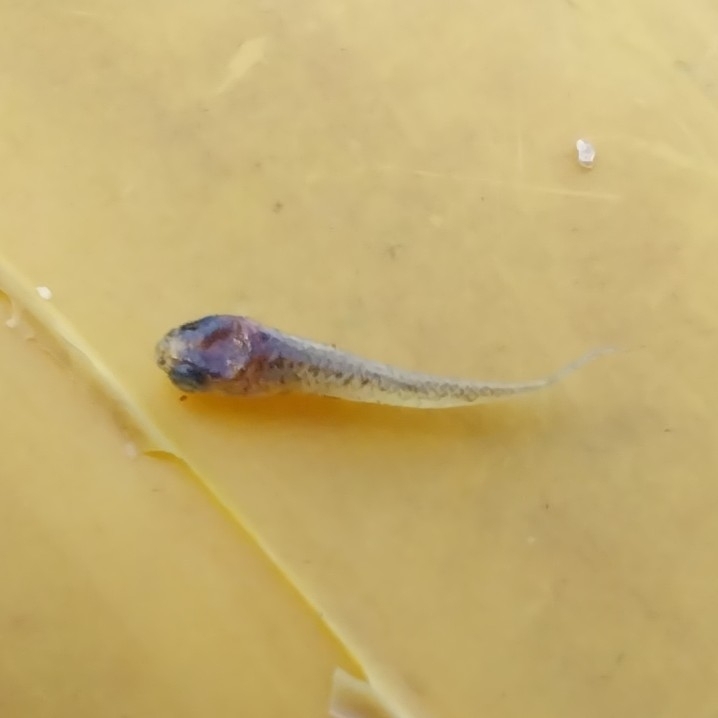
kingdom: Animalia
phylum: Chordata
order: Cyprinodontiformes
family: Anablepidae
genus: Jenynsia
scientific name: Jenynsia lineata
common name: Onesided livebearer
